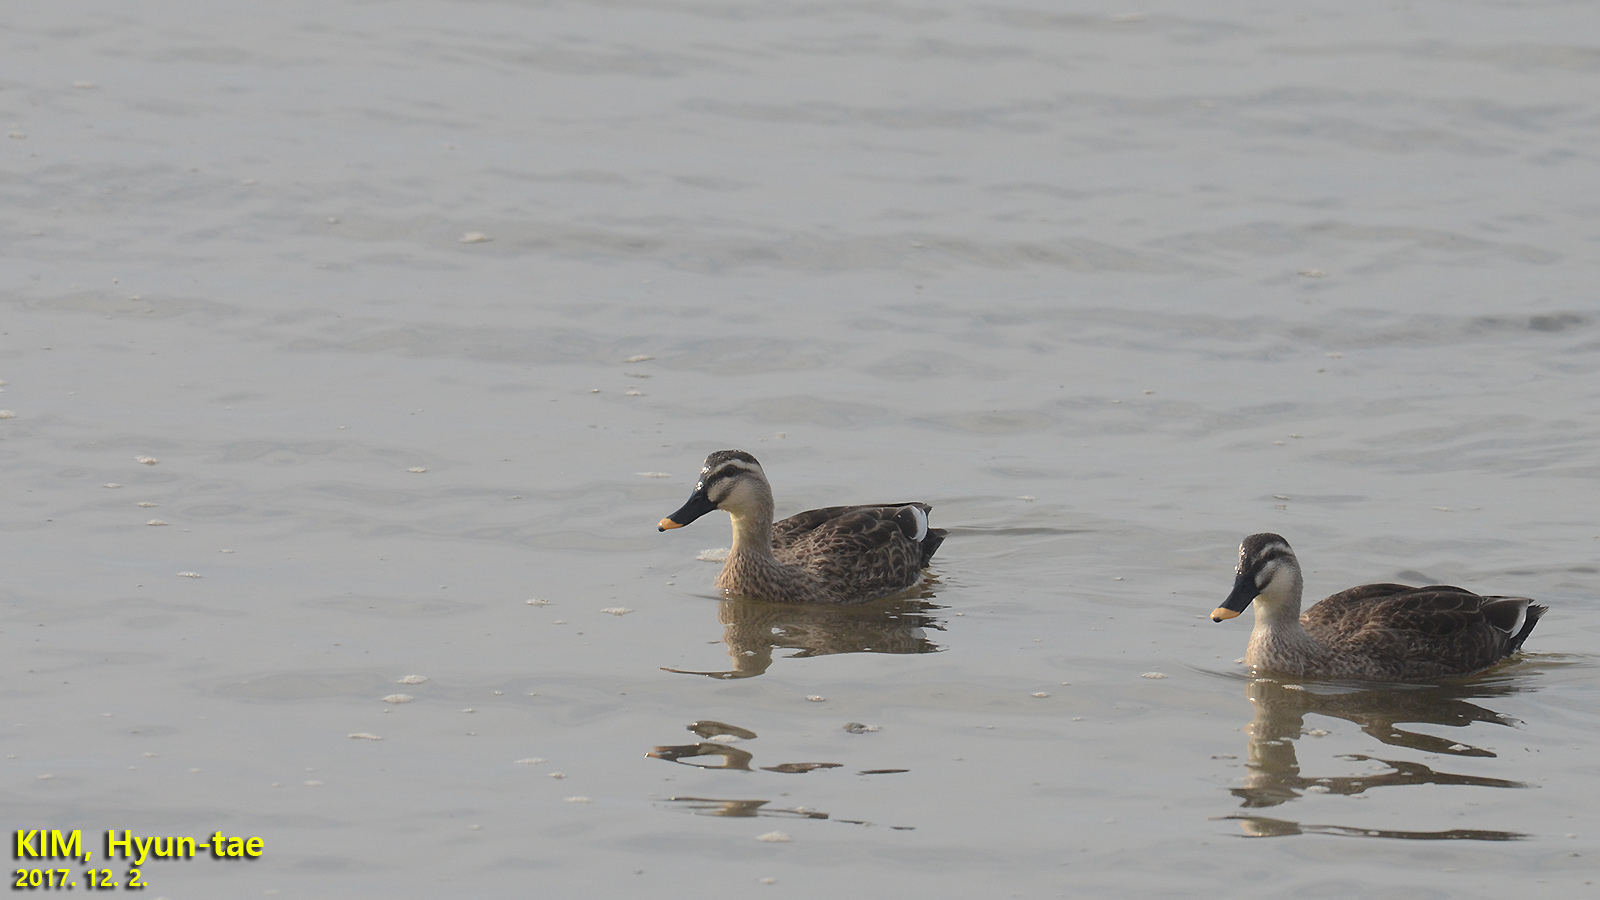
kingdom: Animalia
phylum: Chordata
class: Aves
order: Anseriformes
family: Anatidae
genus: Anas
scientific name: Anas zonorhyncha
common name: Eastern spot-billed duck
